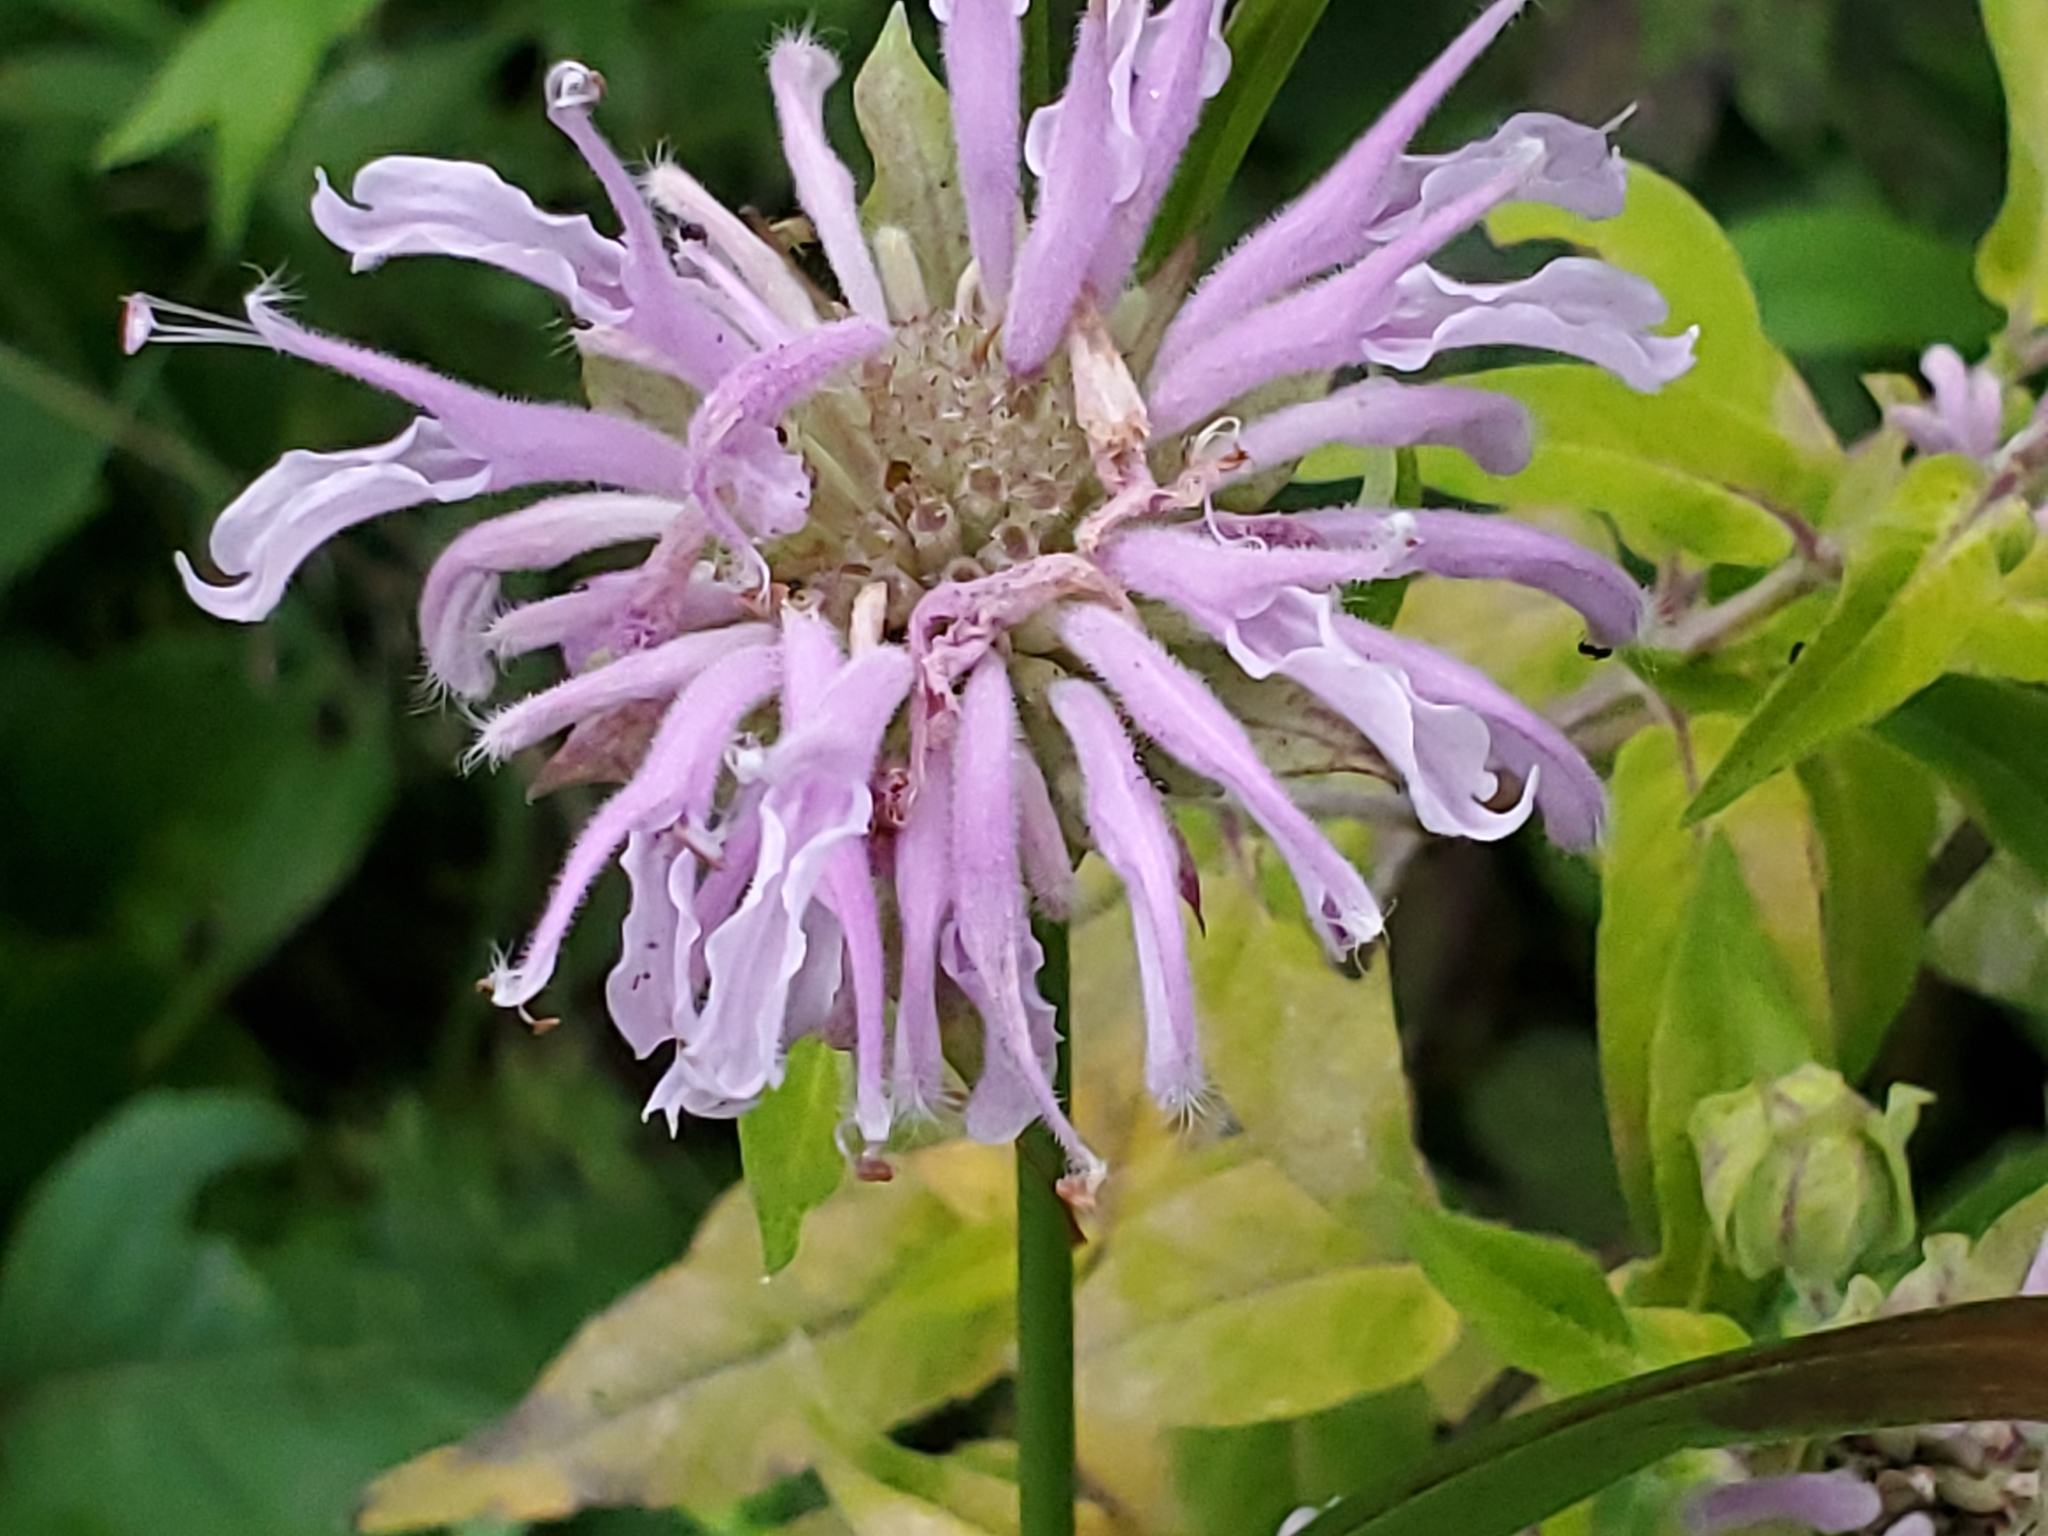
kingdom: Plantae
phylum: Tracheophyta
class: Magnoliopsida
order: Lamiales
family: Lamiaceae
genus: Monarda
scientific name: Monarda fistulosa
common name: Purple beebalm
